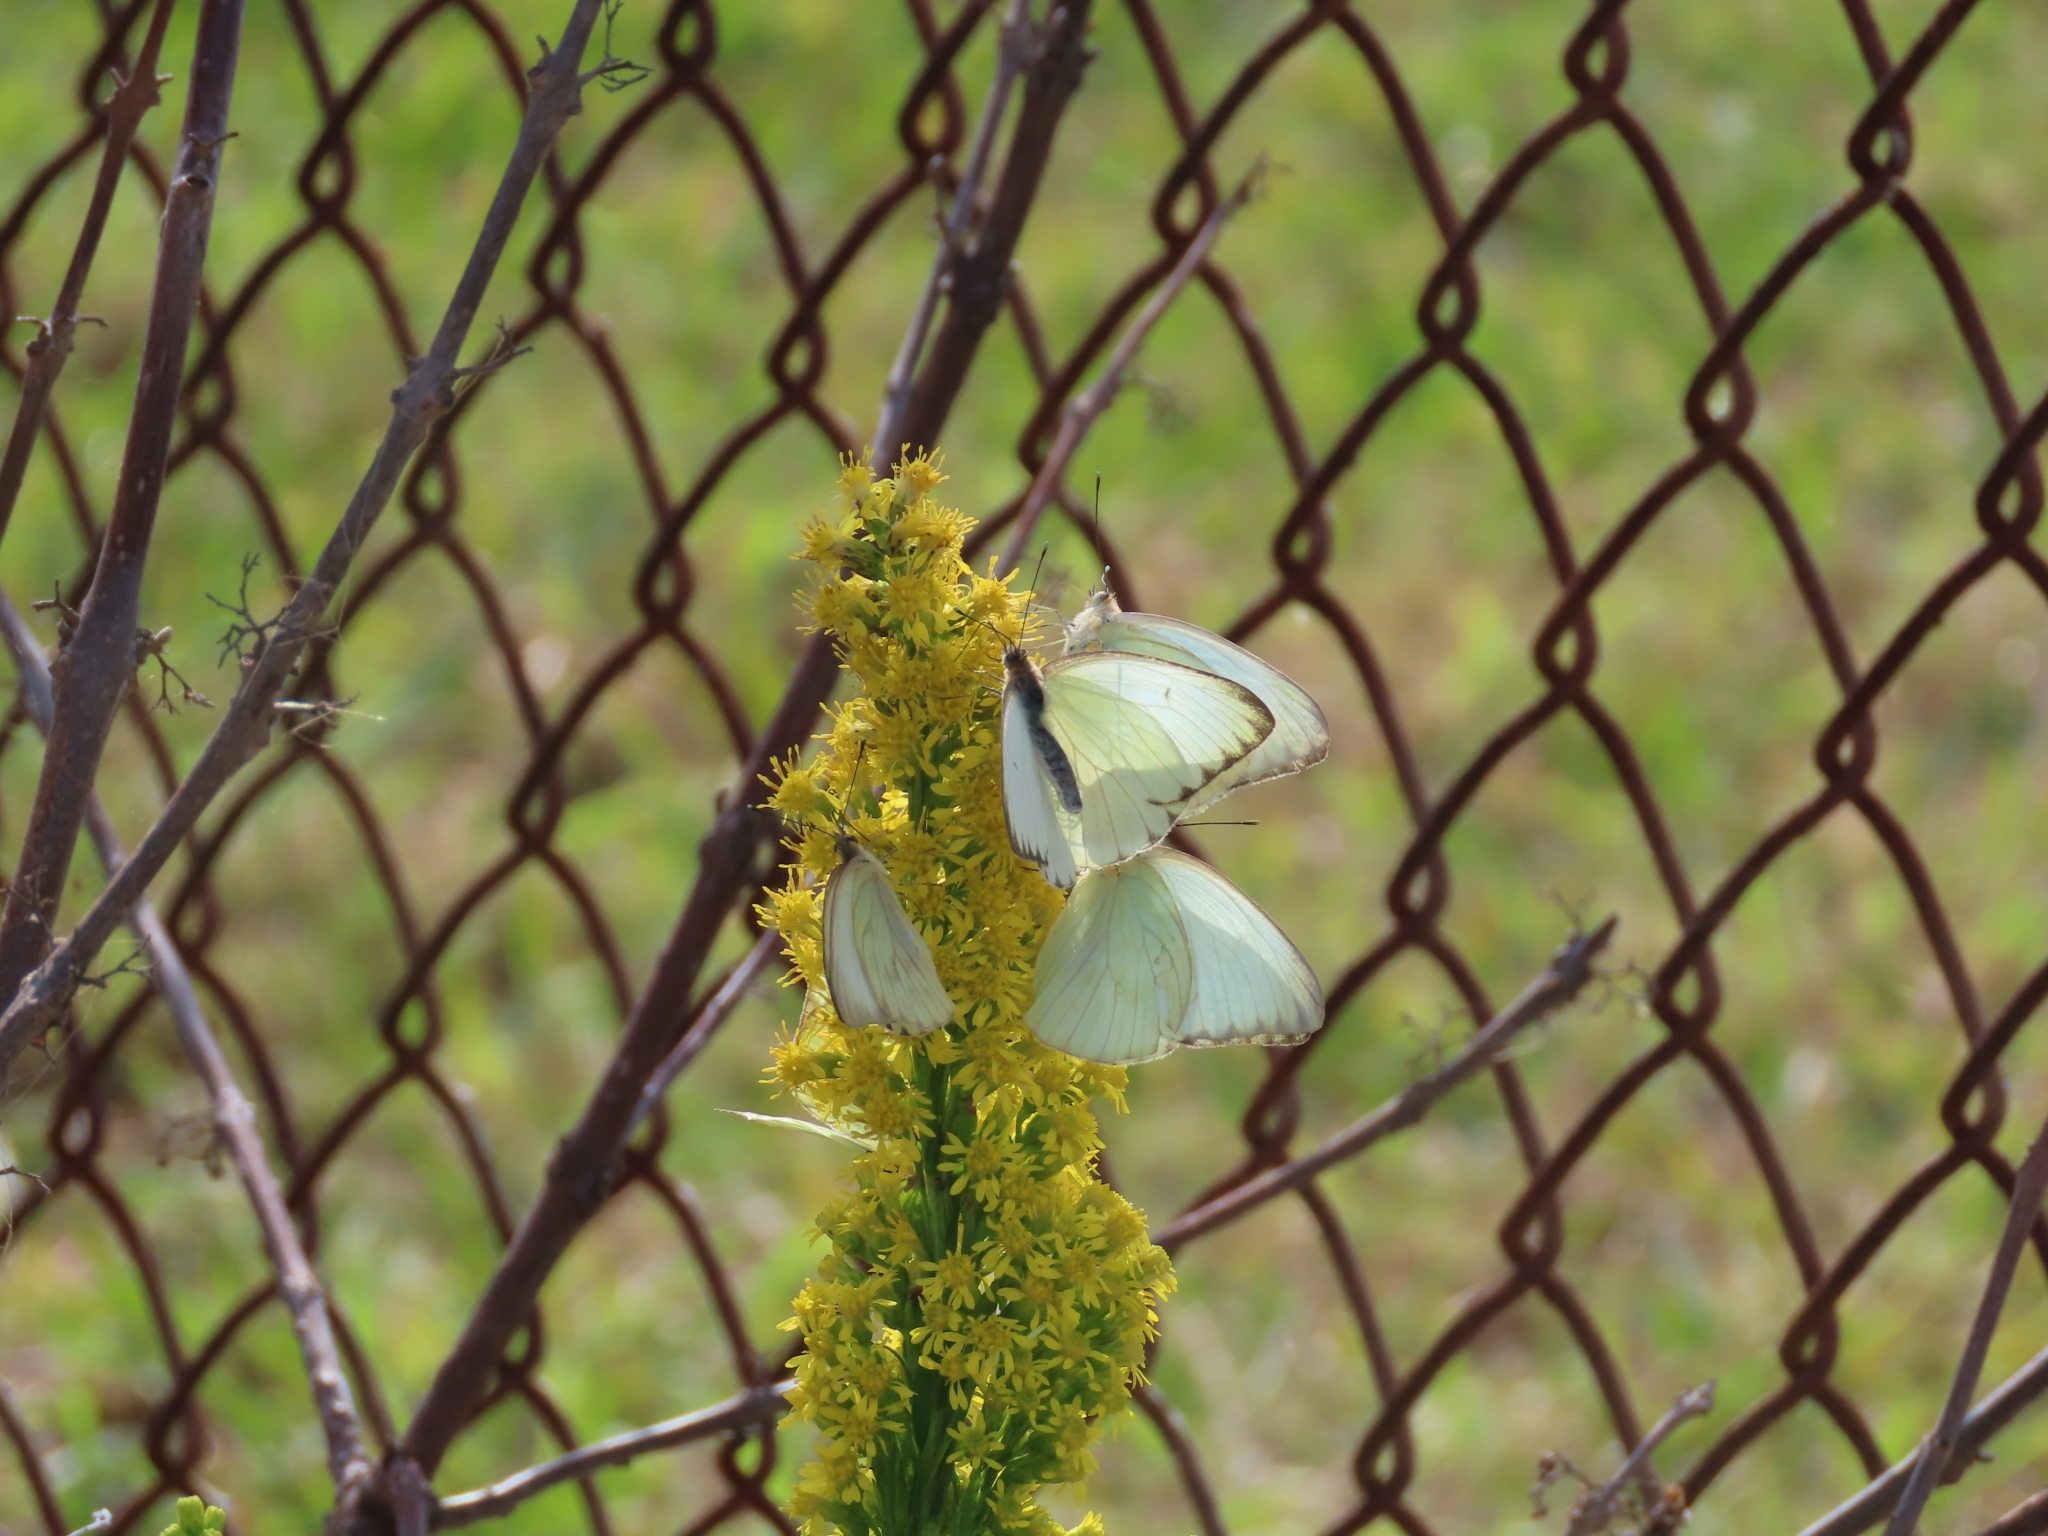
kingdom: Animalia
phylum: Arthropoda
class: Insecta
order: Lepidoptera
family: Pieridae
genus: Ascia
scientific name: Ascia monuste
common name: Great southern white
